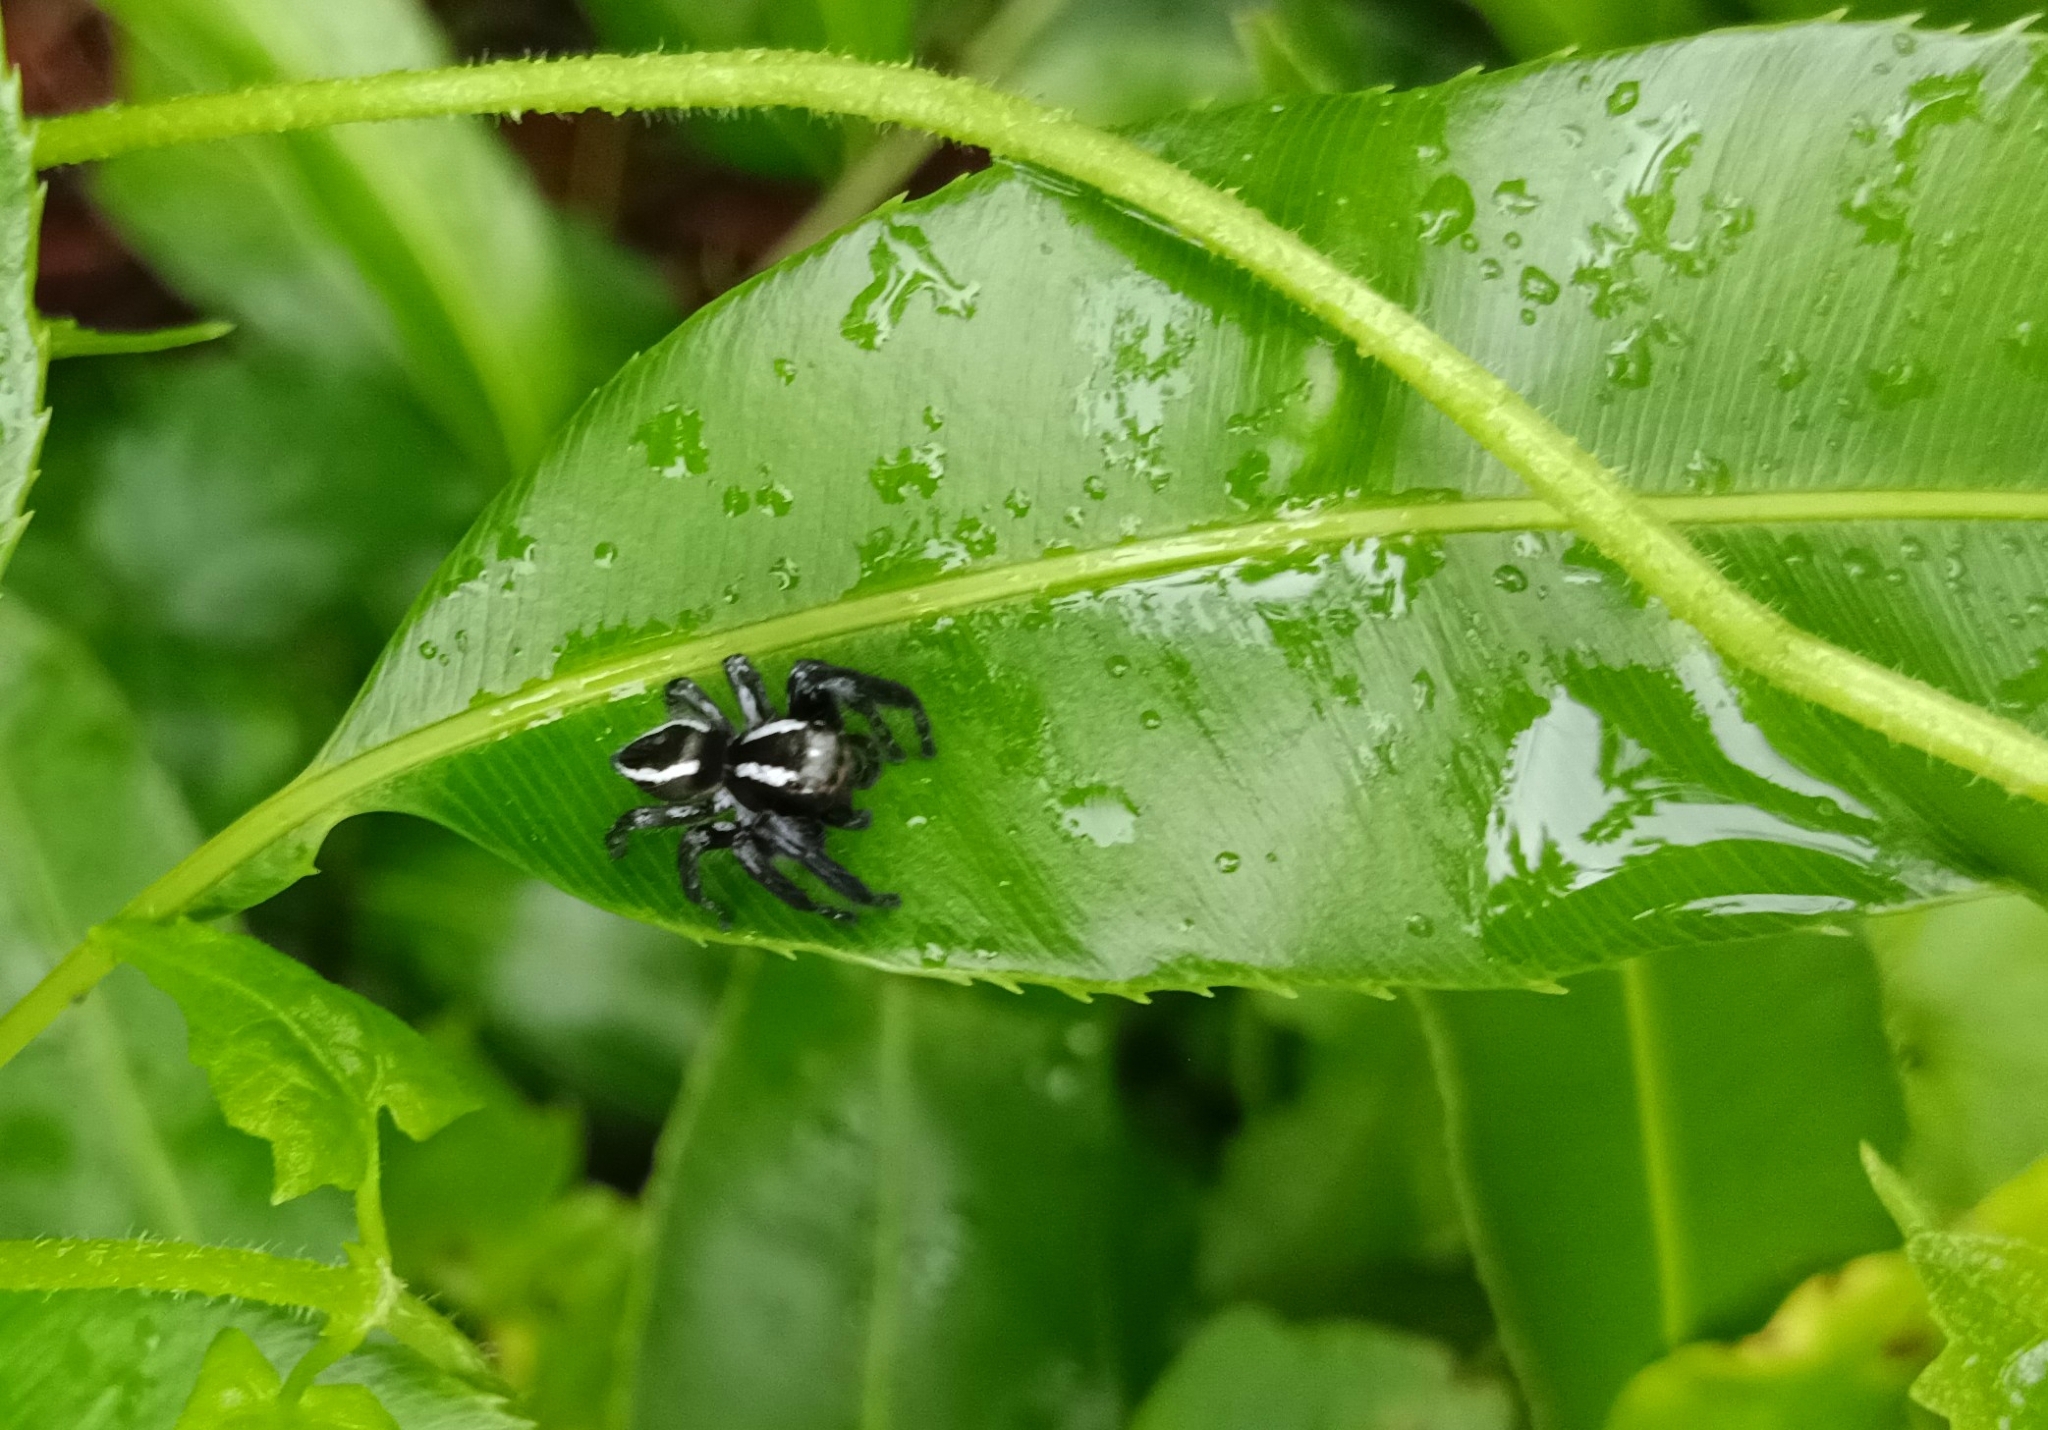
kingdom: Animalia
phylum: Arthropoda
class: Arachnida
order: Araneae
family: Salticidae
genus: Carrhotus
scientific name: Carrhotus viduus
